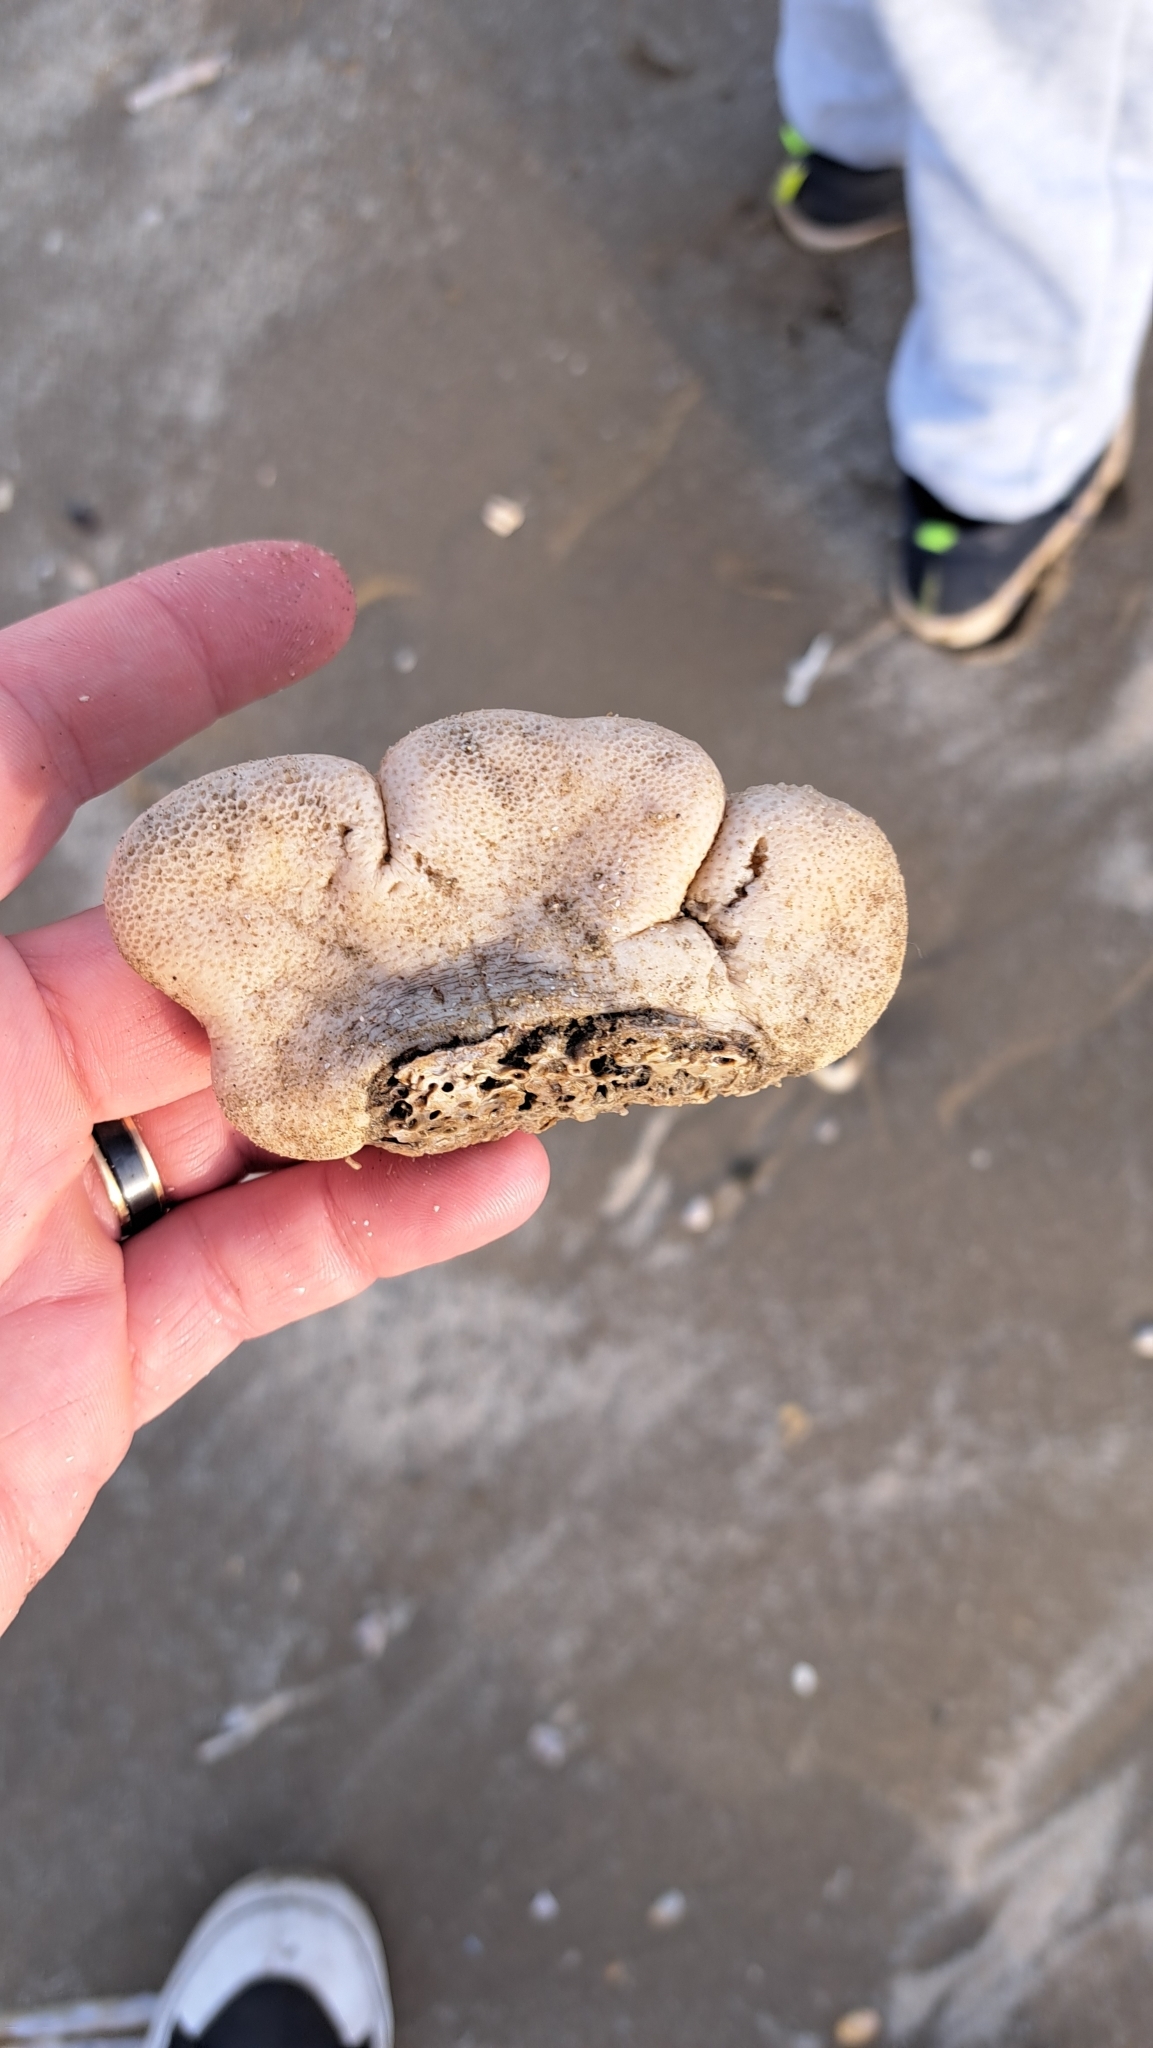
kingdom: Animalia
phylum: Cnidaria
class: Anthozoa
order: Malacalcyonacea
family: Alcyoniidae
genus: Alcyonium
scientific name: Alcyonium digitatum
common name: Dead man's fingers
